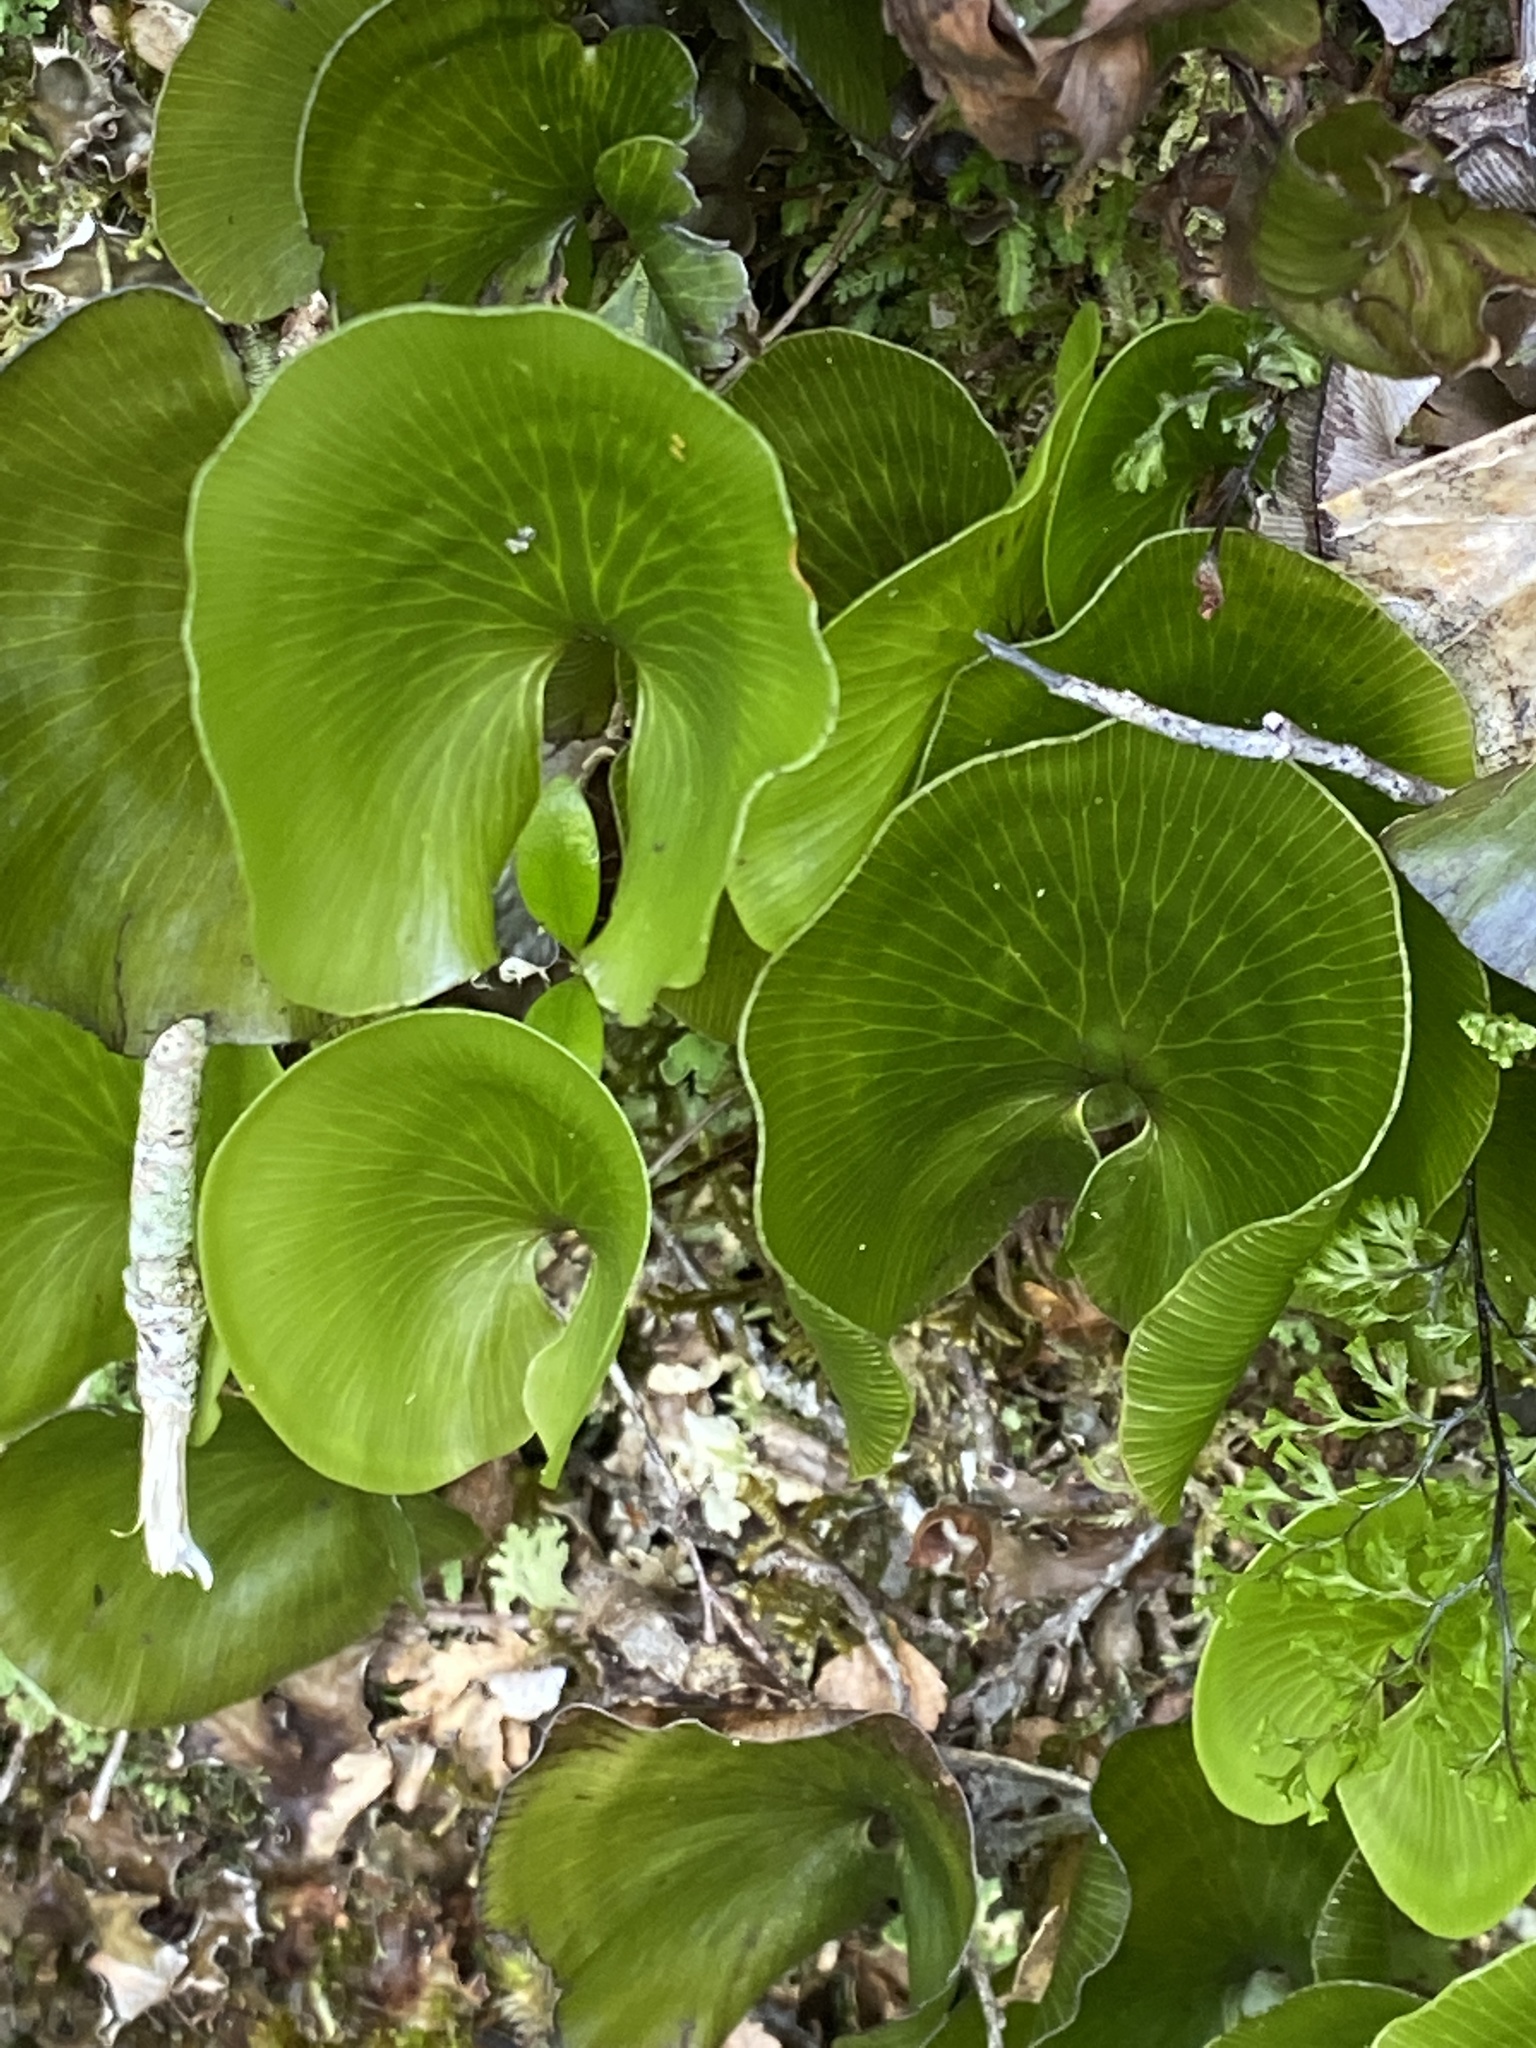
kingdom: Plantae
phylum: Tracheophyta
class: Polypodiopsida
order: Hymenophyllales
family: Hymenophyllaceae
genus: Hymenophyllum
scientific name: Hymenophyllum nephrophyllum
